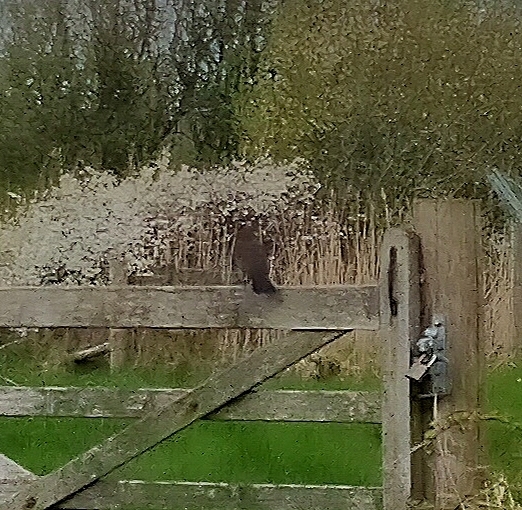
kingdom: Animalia
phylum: Chordata
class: Aves
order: Passeriformes
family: Turdidae
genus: Turdus
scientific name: Turdus merula
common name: Common blackbird
